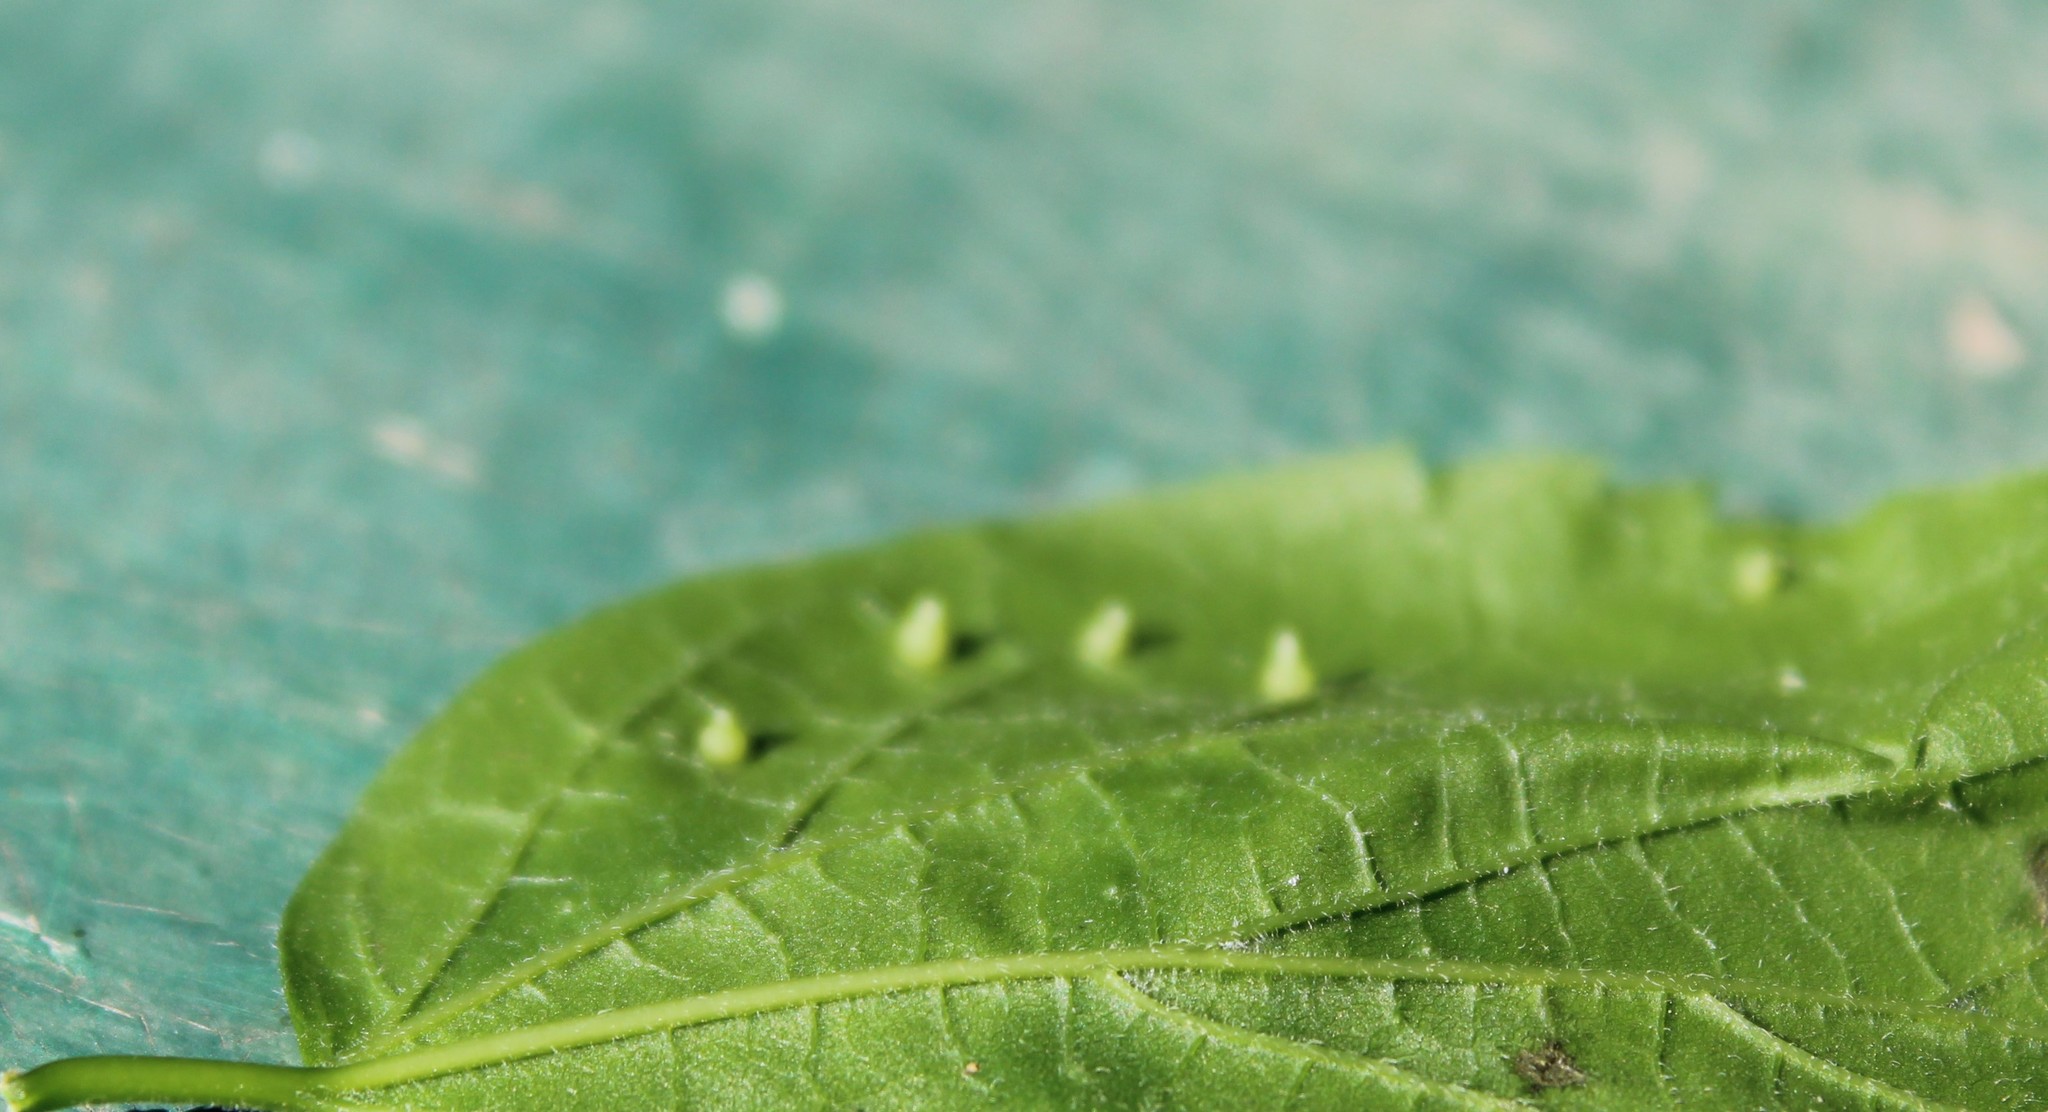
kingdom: Animalia
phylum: Arthropoda
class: Insecta
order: Diptera
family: Cecidomyiidae
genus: Celticecis
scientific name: Celticecis cupiformis
